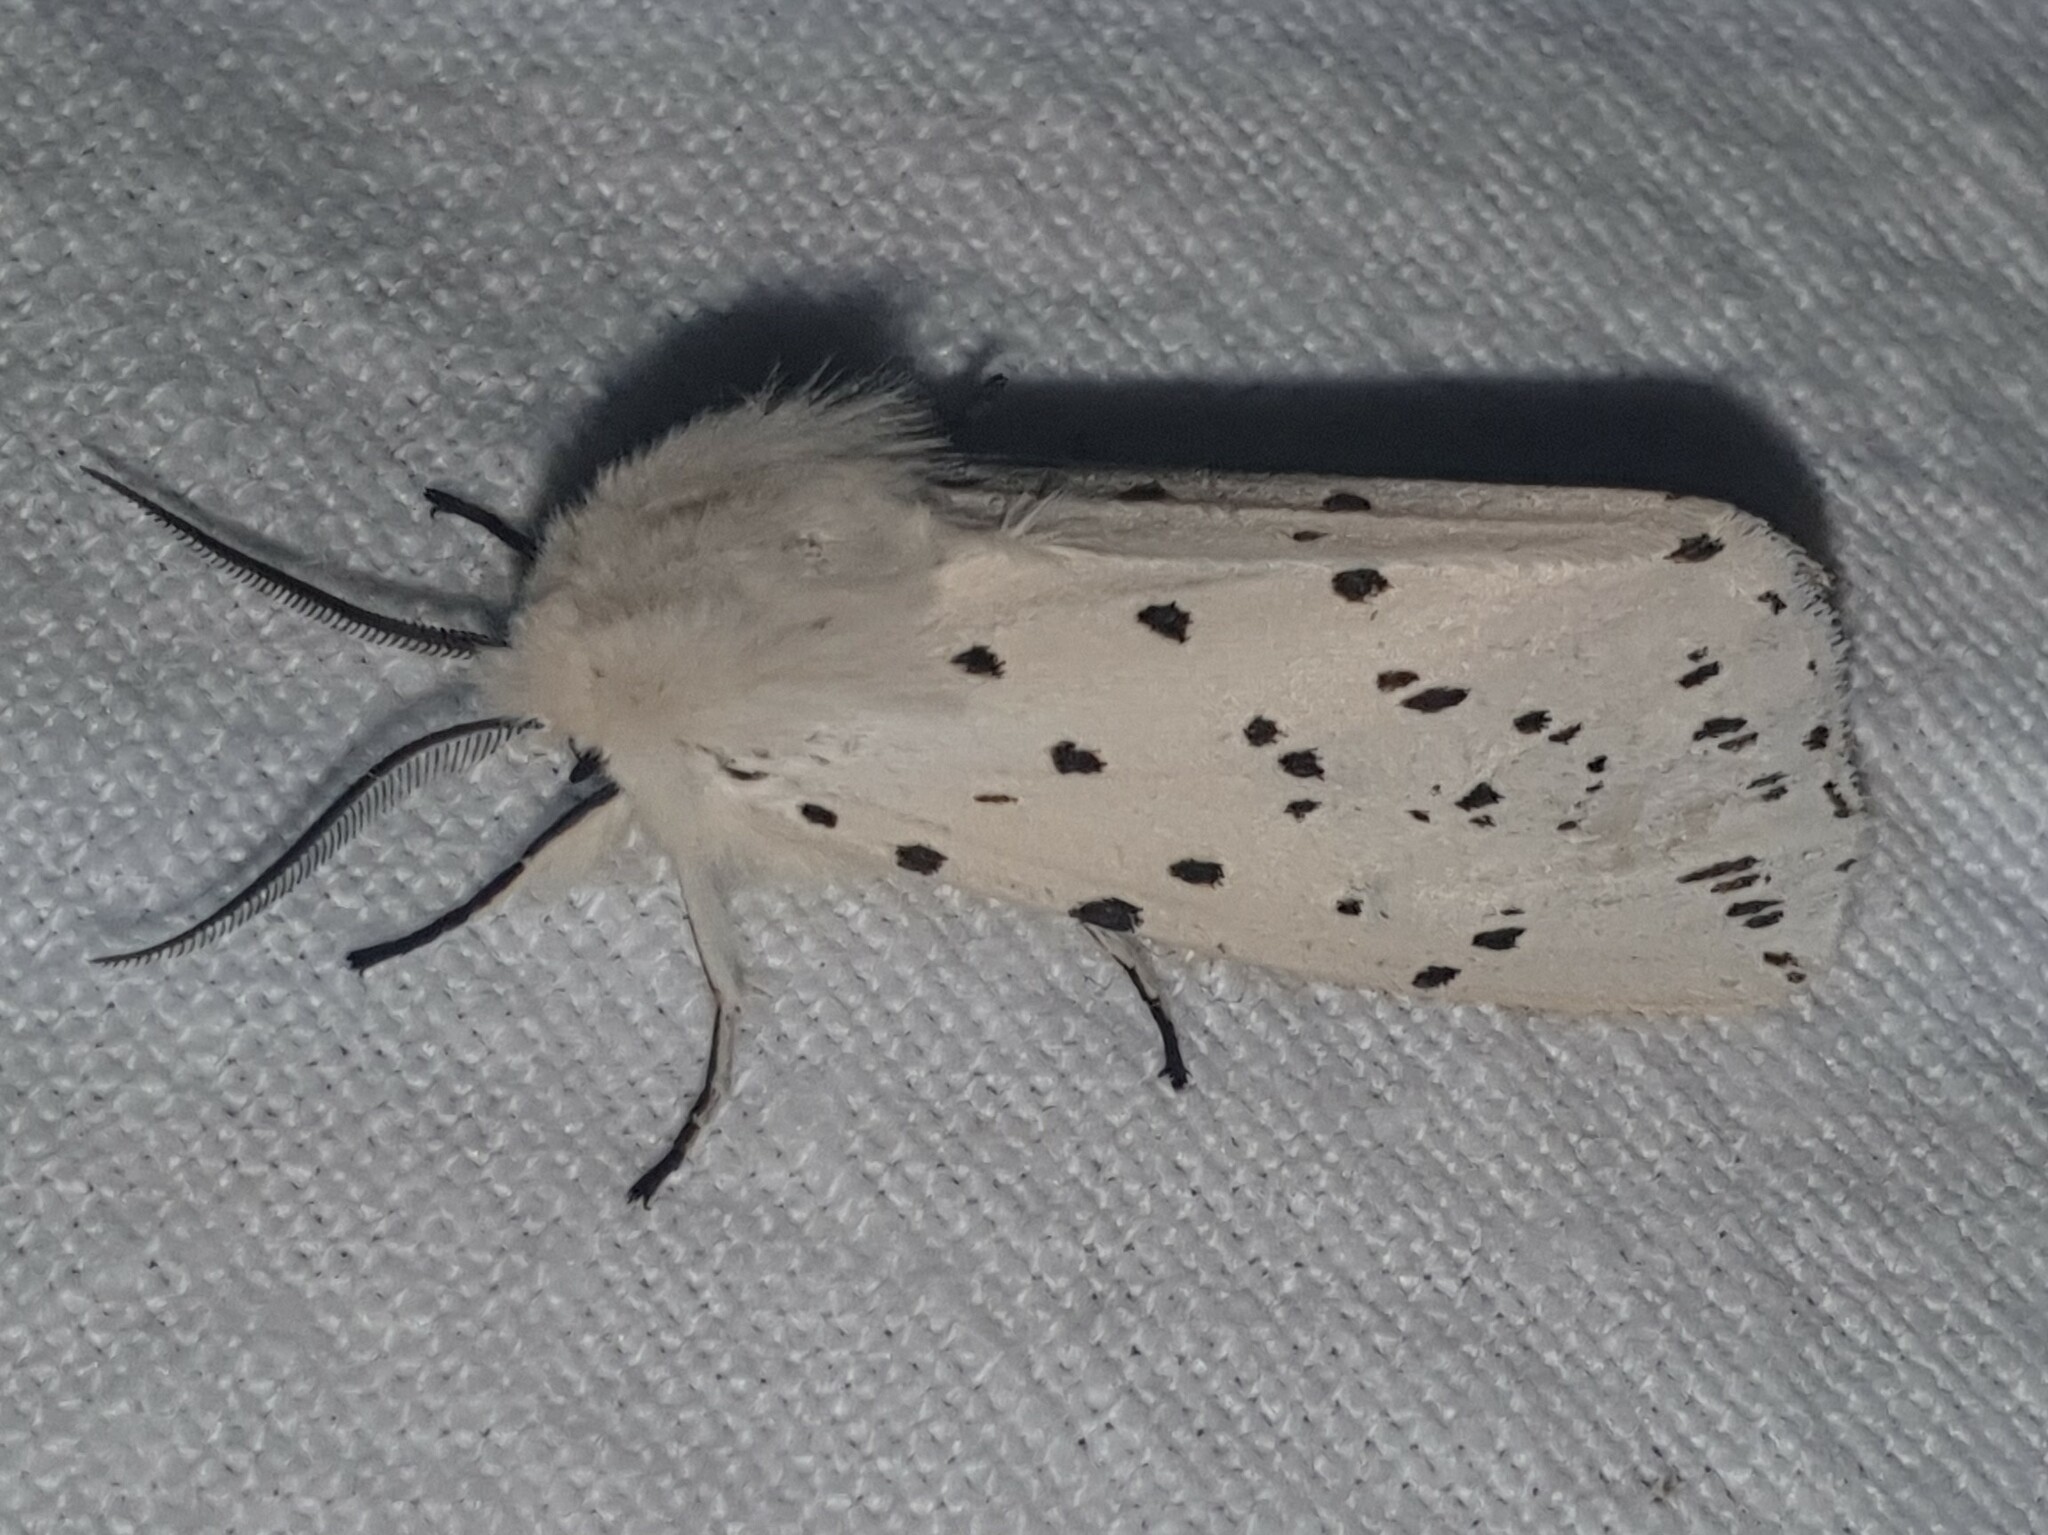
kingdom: Animalia
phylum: Arthropoda
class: Insecta
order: Lepidoptera
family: Erebidae
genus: Spilosoma
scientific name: Spilosoma lubricipeda
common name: White ermine
